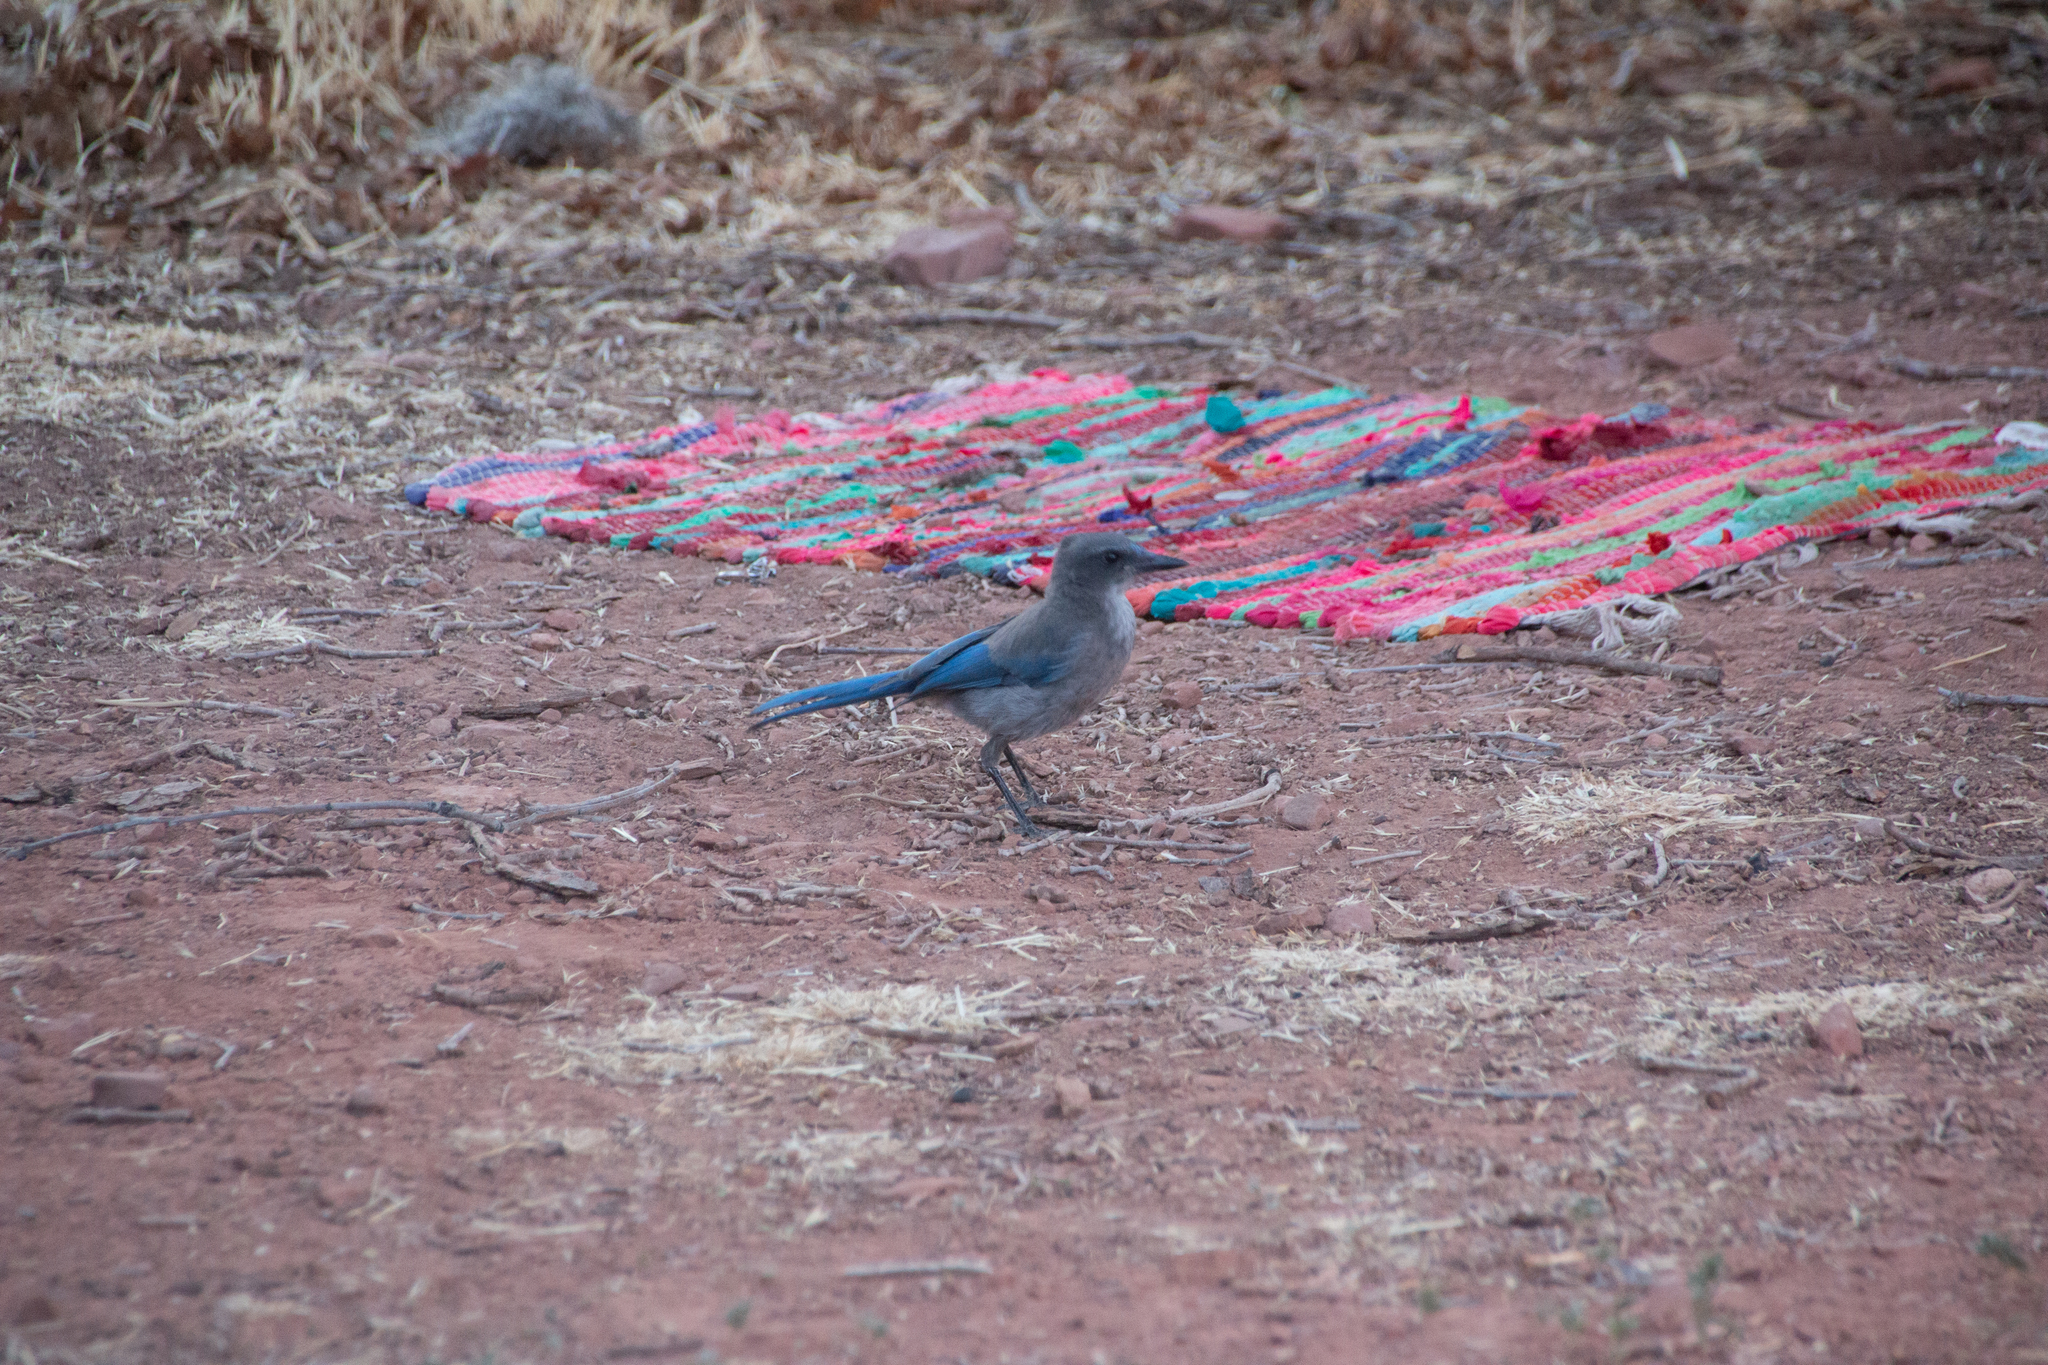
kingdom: Animalia
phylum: Chordata
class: Aves
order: Passeriformes
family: Corvidae
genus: Aphelocoma
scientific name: Aphelocoma woodhouseii
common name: Woodhouse's scrub-jay
